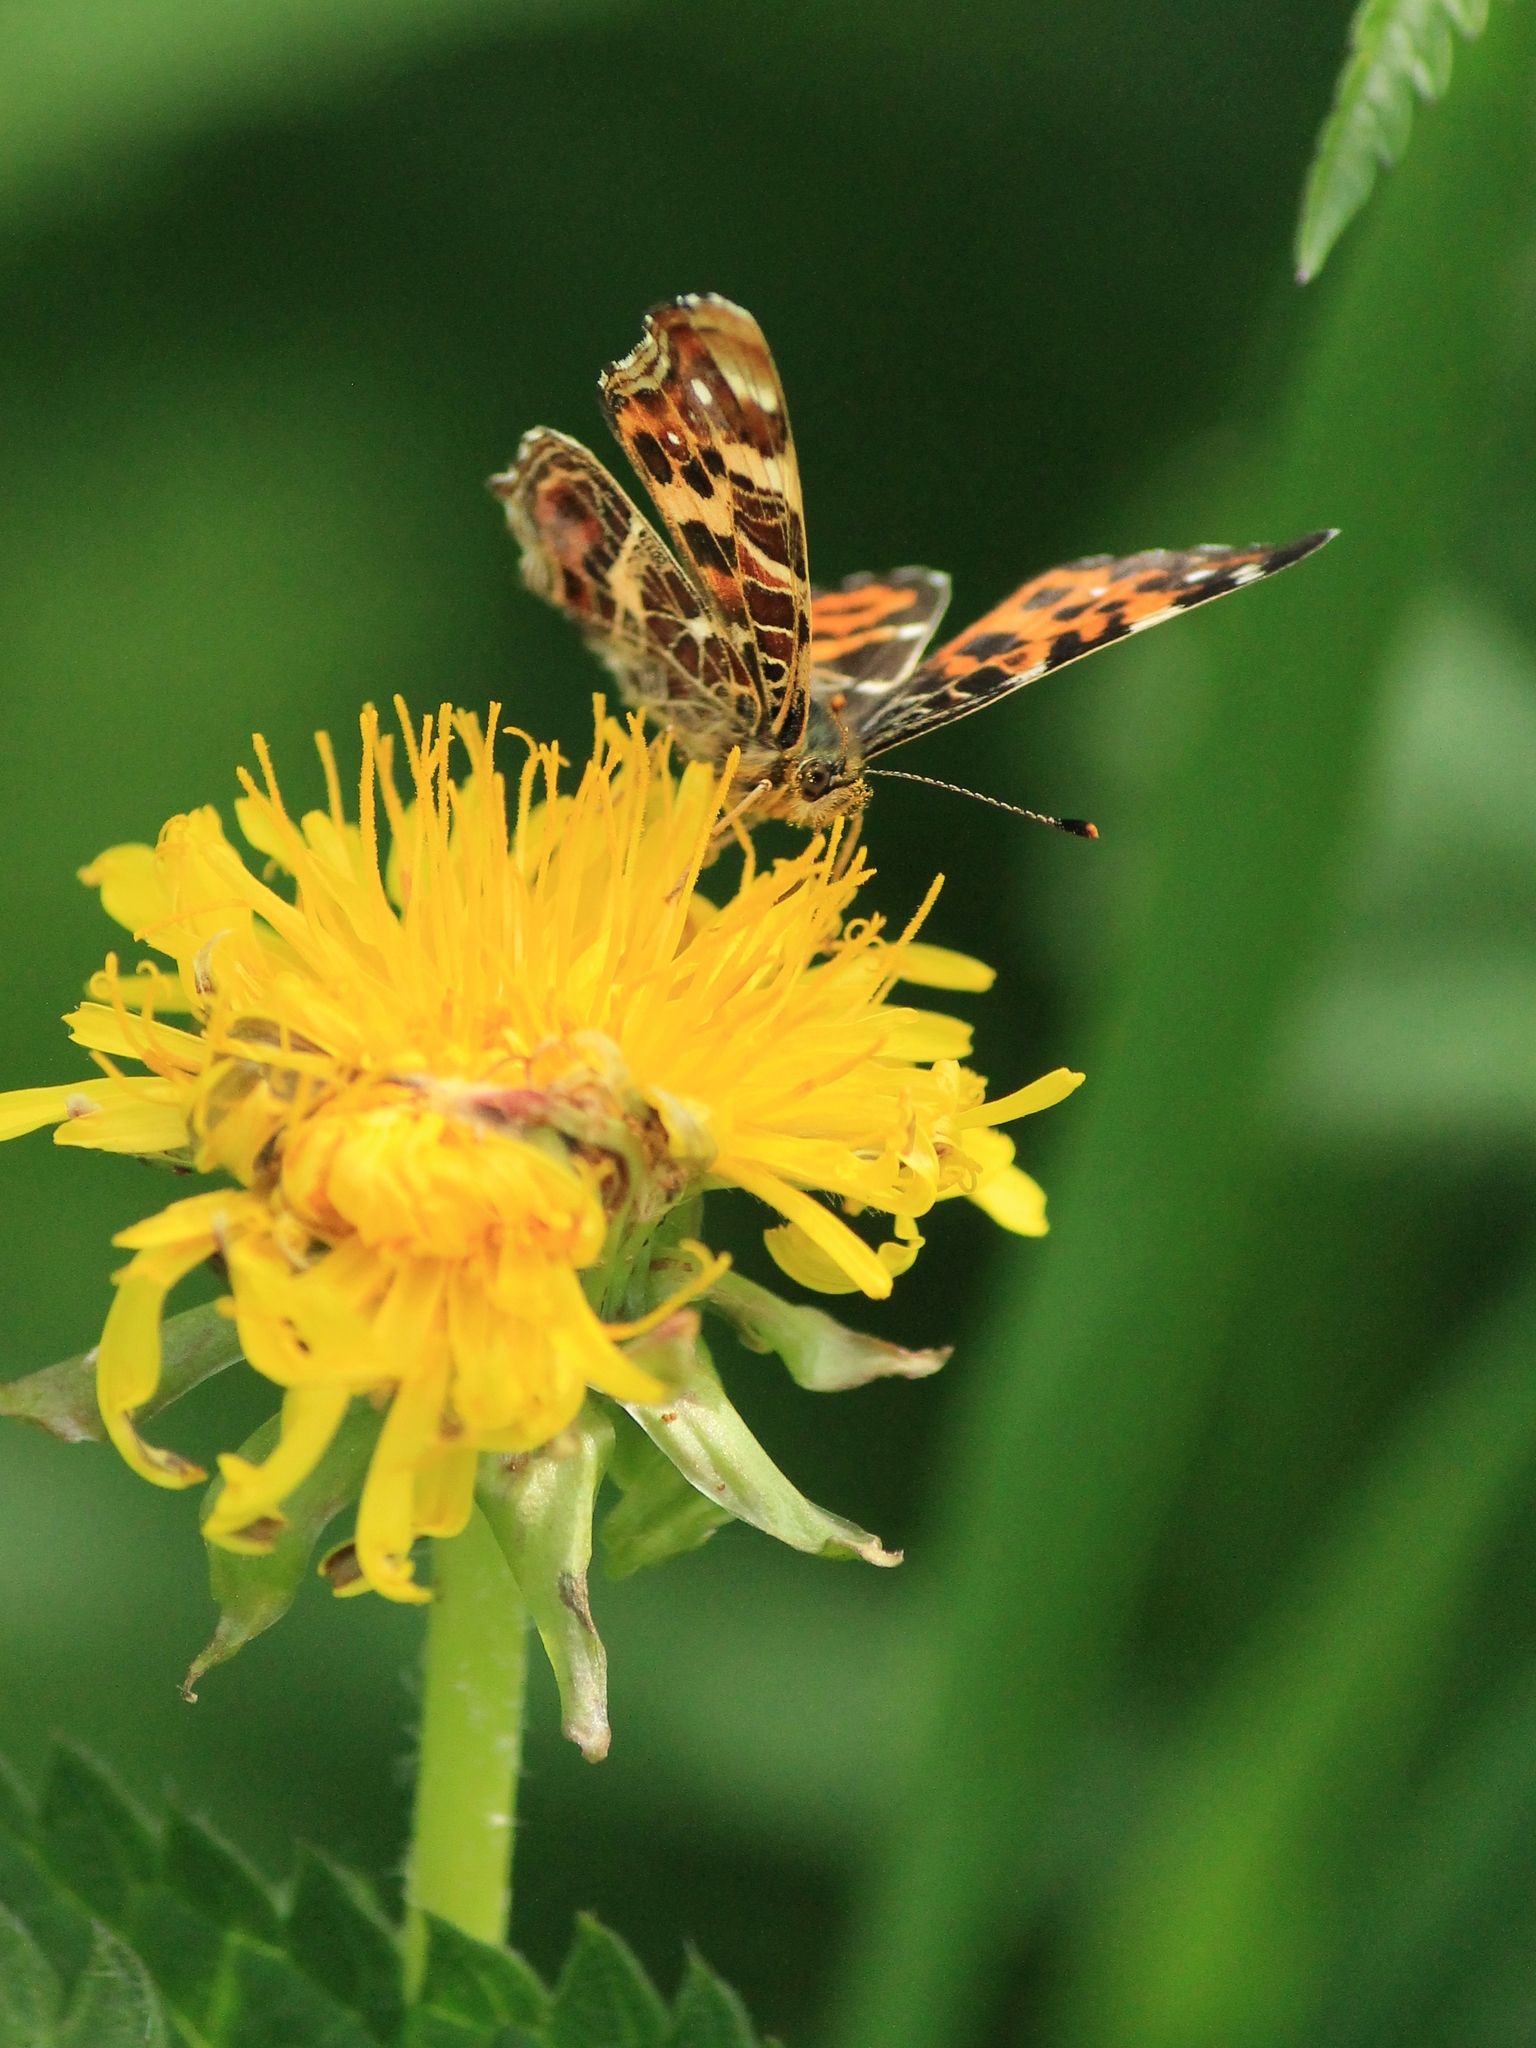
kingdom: Animalia
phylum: Arthropoda
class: Insecta
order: Lepidoptera
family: Nymphalidae
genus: Araschnia
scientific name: Araschnia levana
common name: Map butterfly
